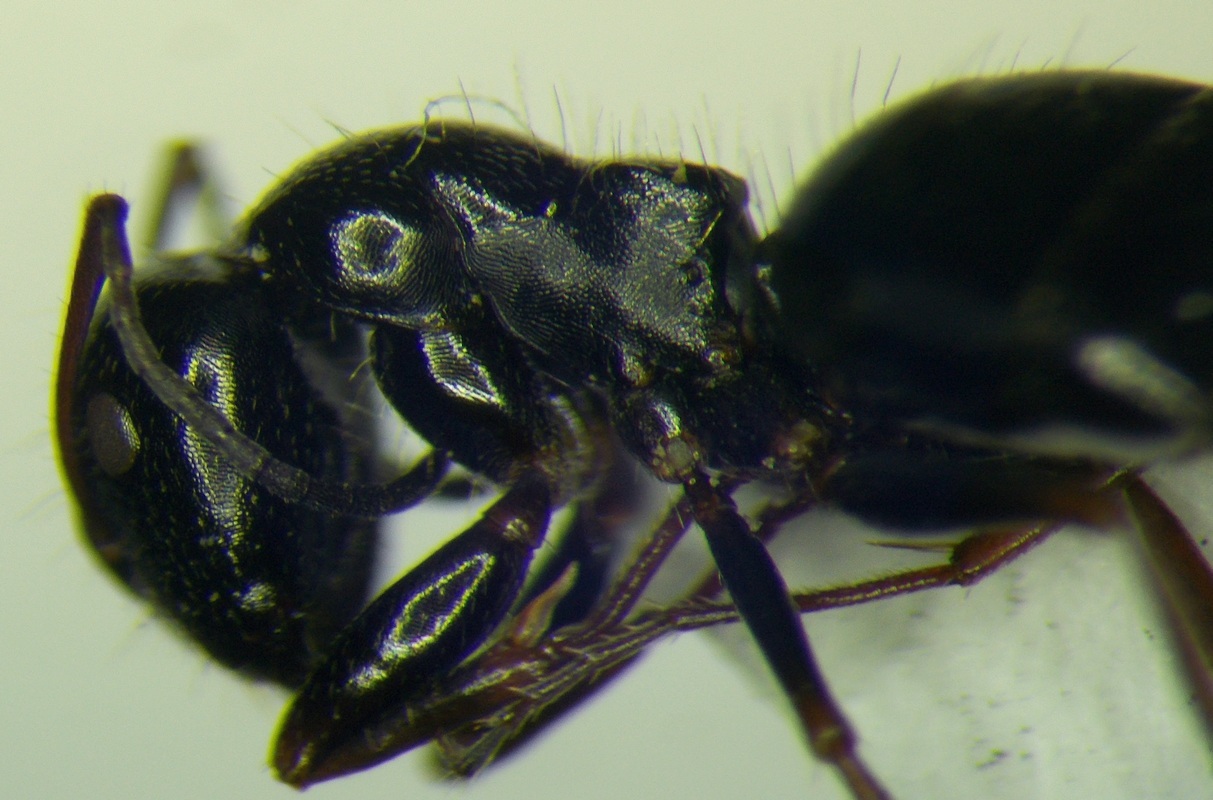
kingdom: Animalia
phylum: Arthropoda
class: Insecta
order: Hymenoptera
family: Formicidae
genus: Camponotus
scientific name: Camponotus piceus
